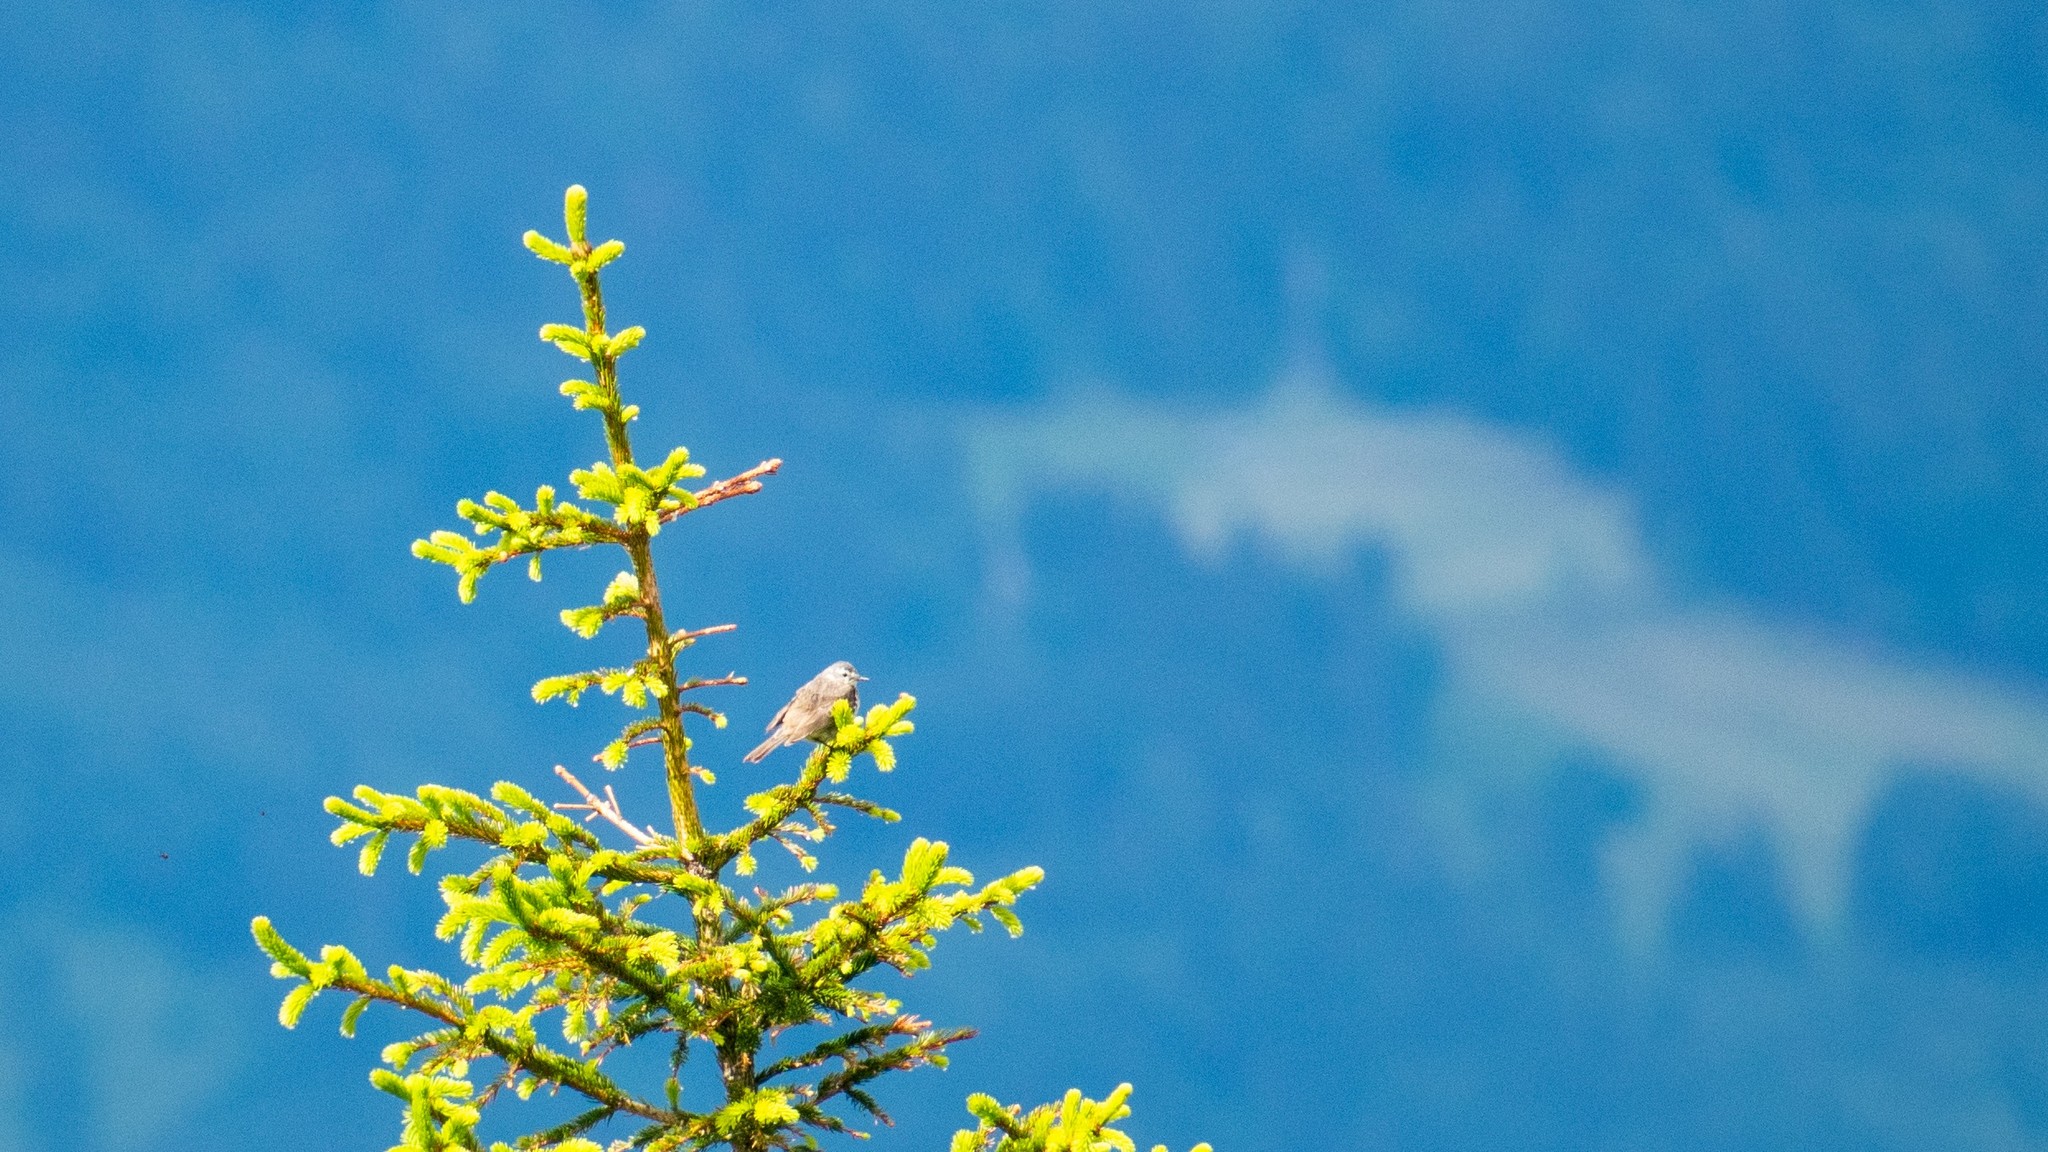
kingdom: Animalia
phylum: Chordata
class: Aves
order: Passeriformes
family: Motacillidae
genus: Anthus
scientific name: Anthus spinoletta
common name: Water pipit
